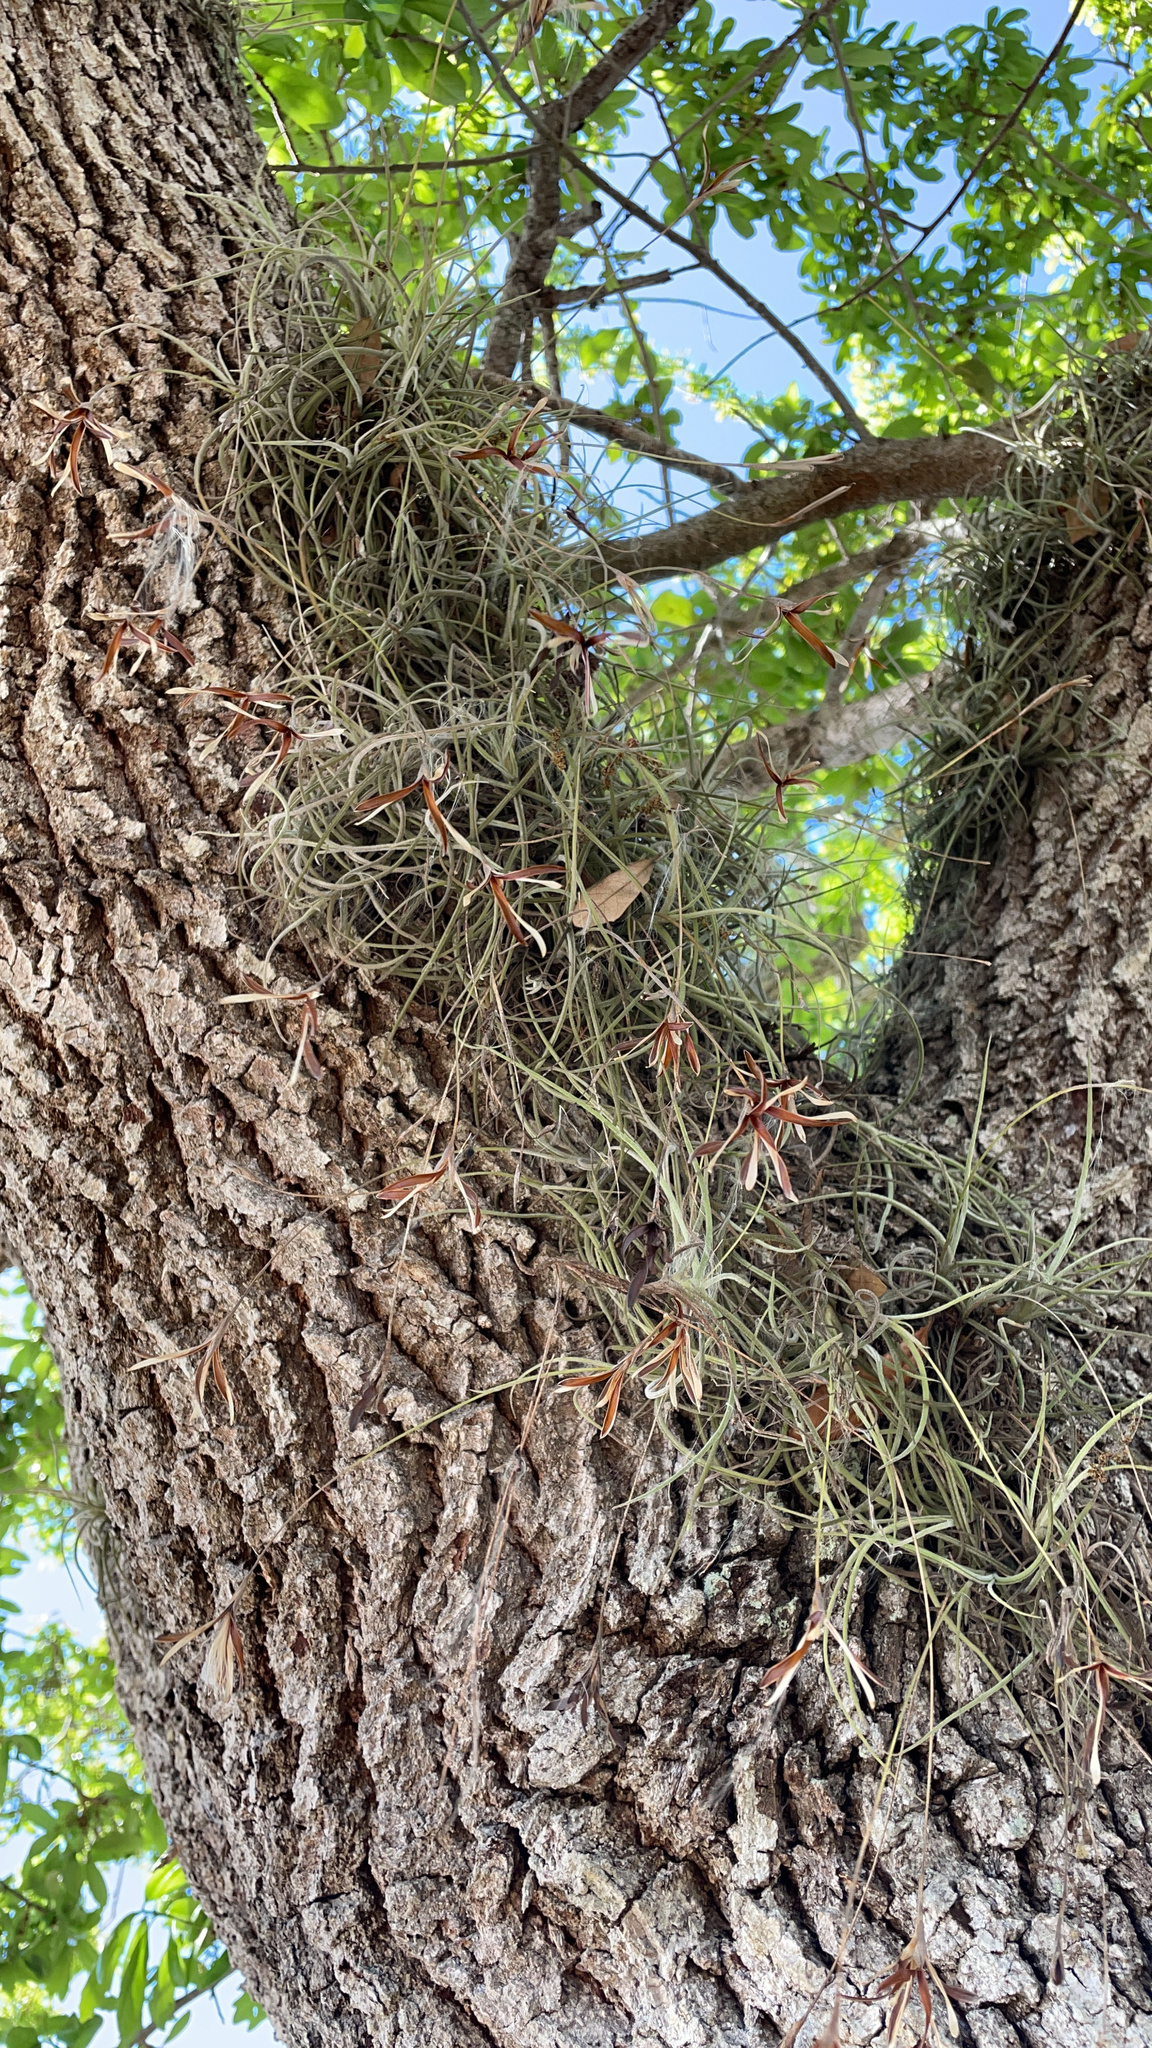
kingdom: Plantae
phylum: Tracheophyta
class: Liliopsida
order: Poales
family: Bromeliaceae
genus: Tillandsia
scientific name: Tillandsia recurvata
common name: Small ballmoss
